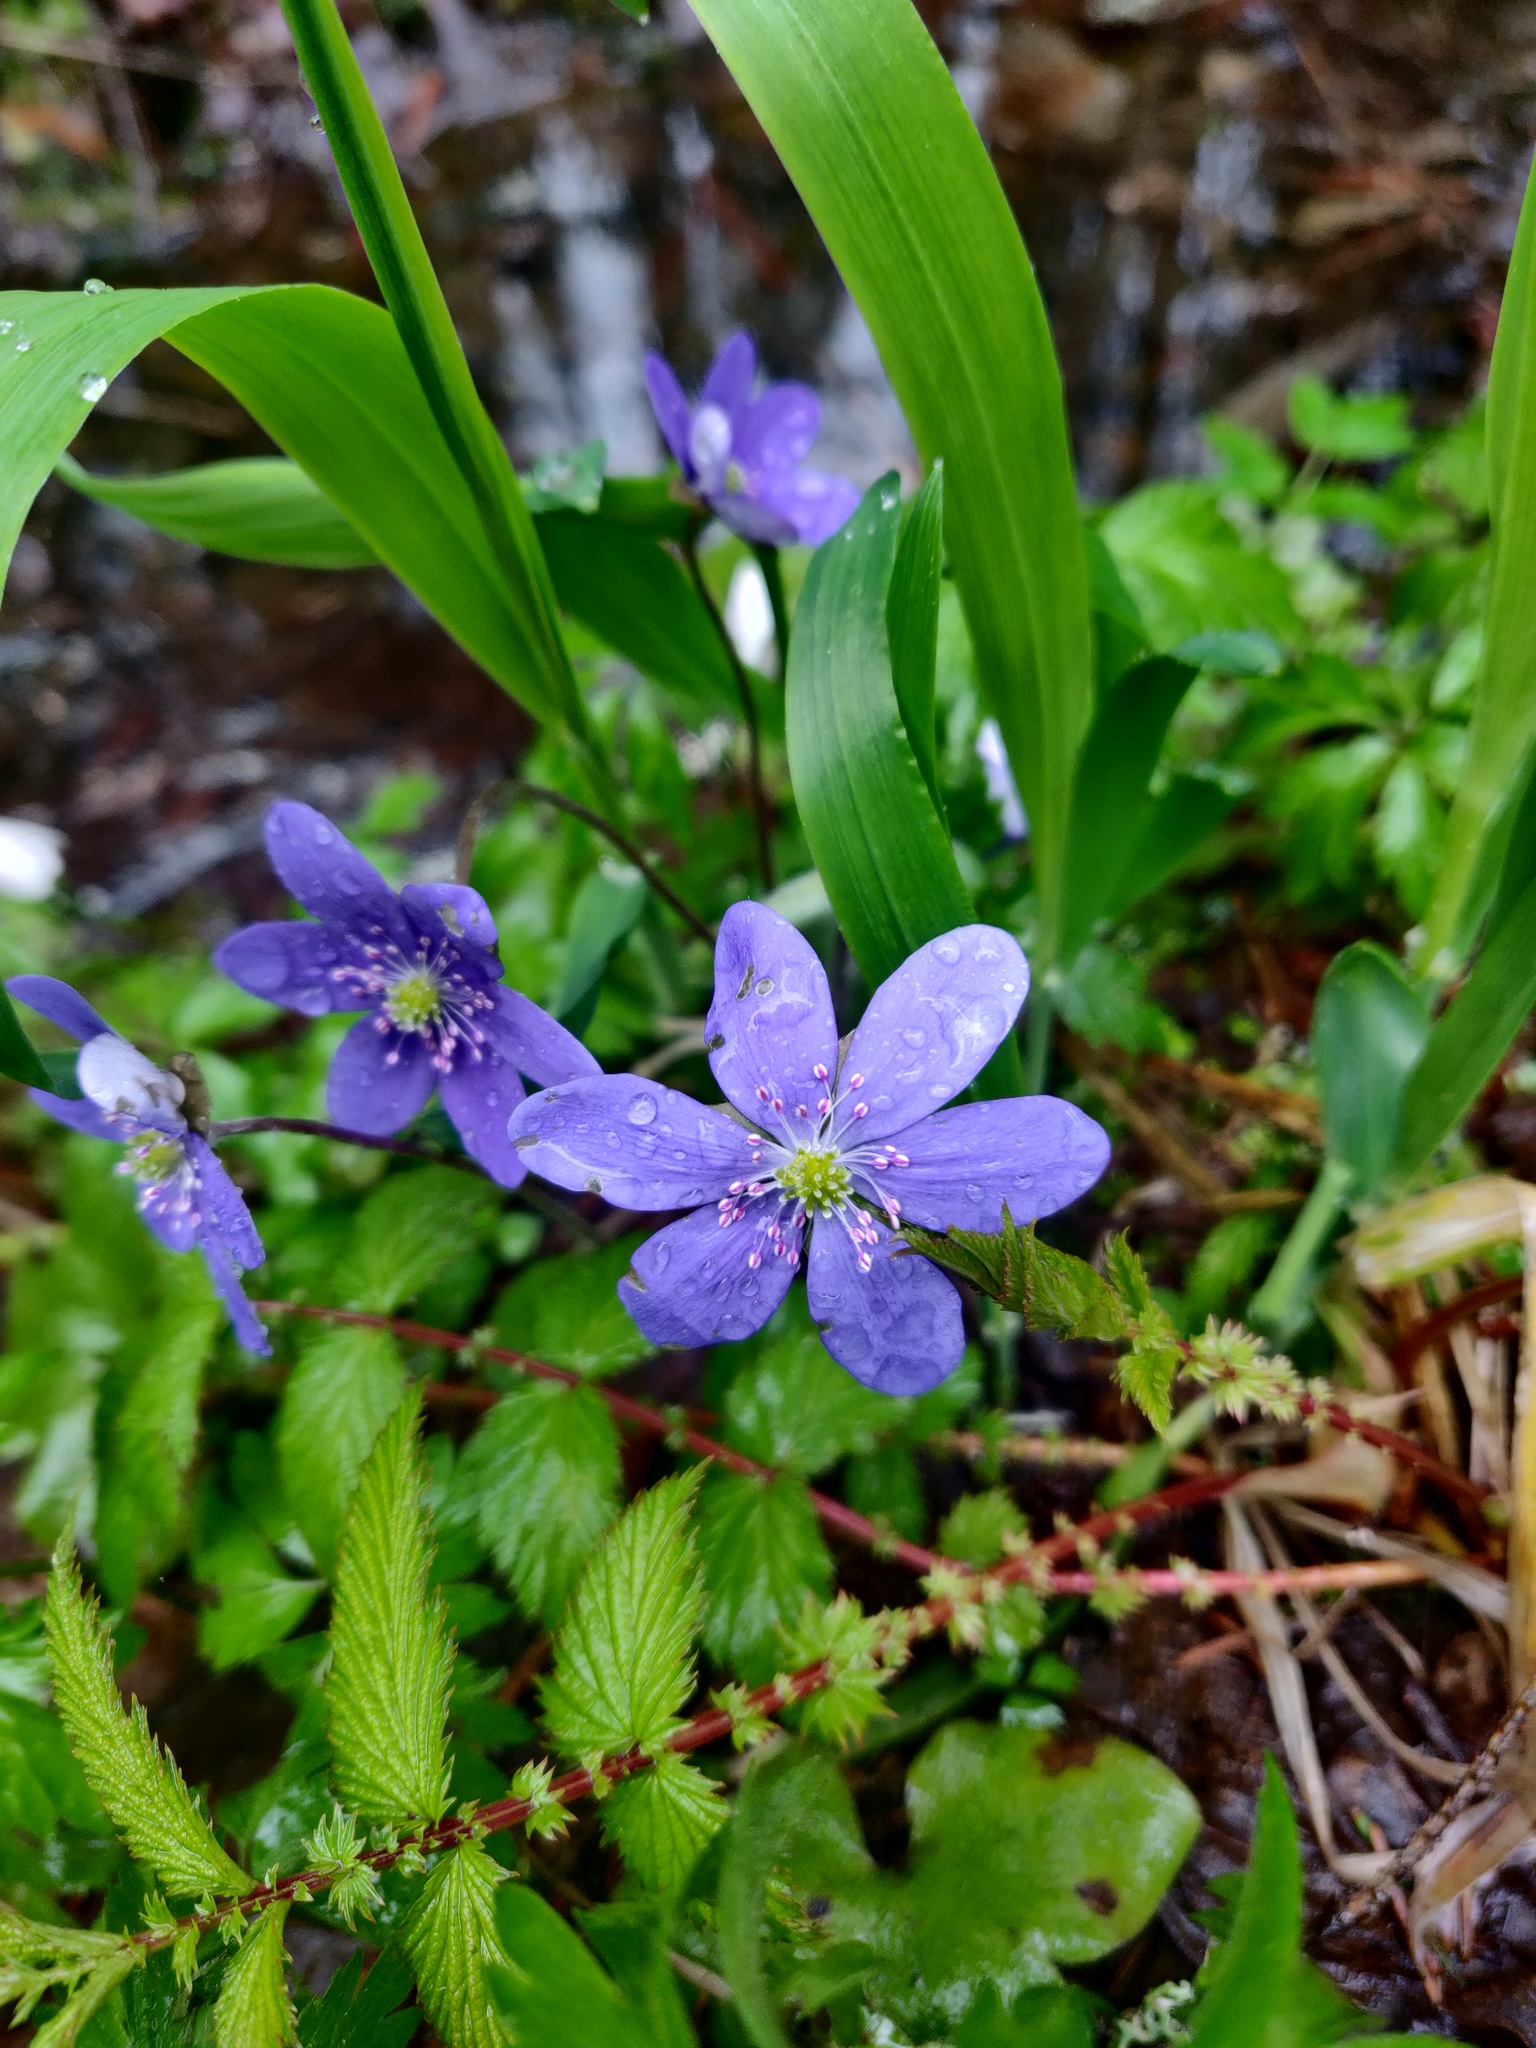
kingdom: Plantae
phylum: Tracheophyta
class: Magnoliopsida
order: Ranunculales
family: Ranunculaceae
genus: Hepatica
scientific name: Hepatica nobilis
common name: Liverleaf
